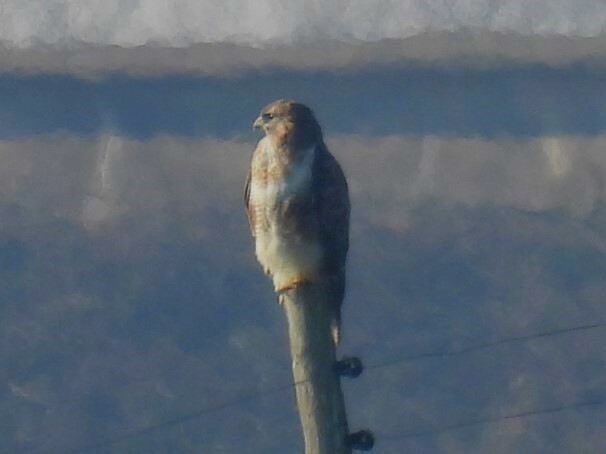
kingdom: Animalia
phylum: Chordata
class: Aves
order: Accipitriformes
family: Accipitridae
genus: Buteo
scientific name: Buteo buteo
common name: Common buzzard
